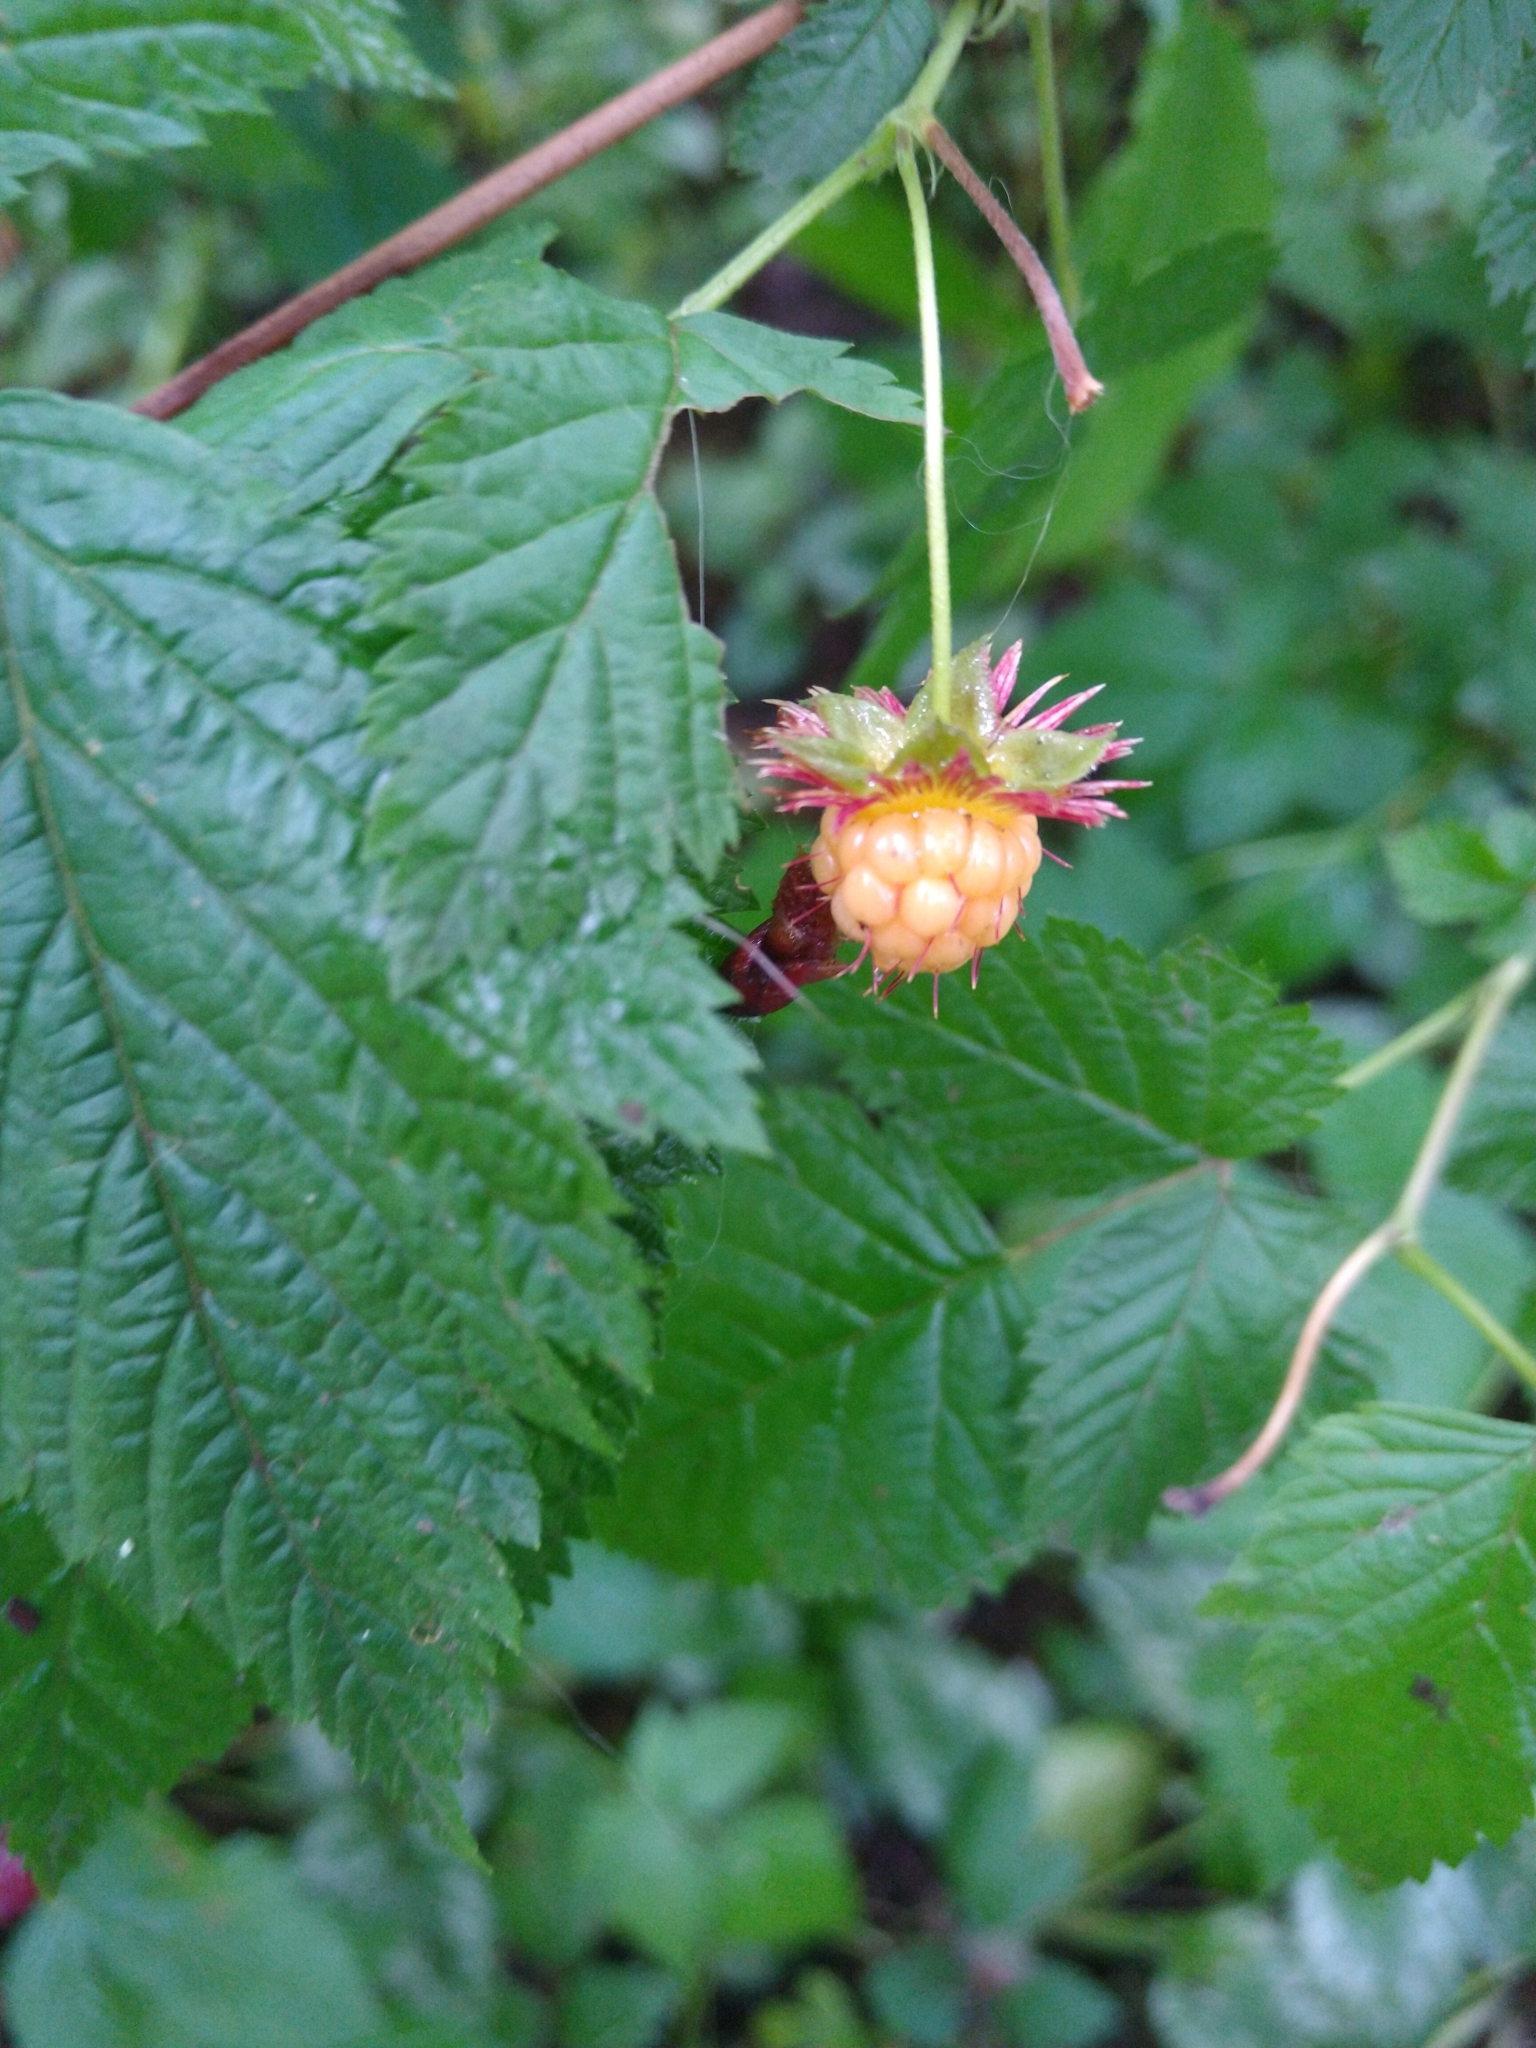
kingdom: Plantae
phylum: Tracheophyta
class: Magnoliopsida
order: Rosales
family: Rosaceae
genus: Rubus
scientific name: Rubus spectabilis
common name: Salmonberry
